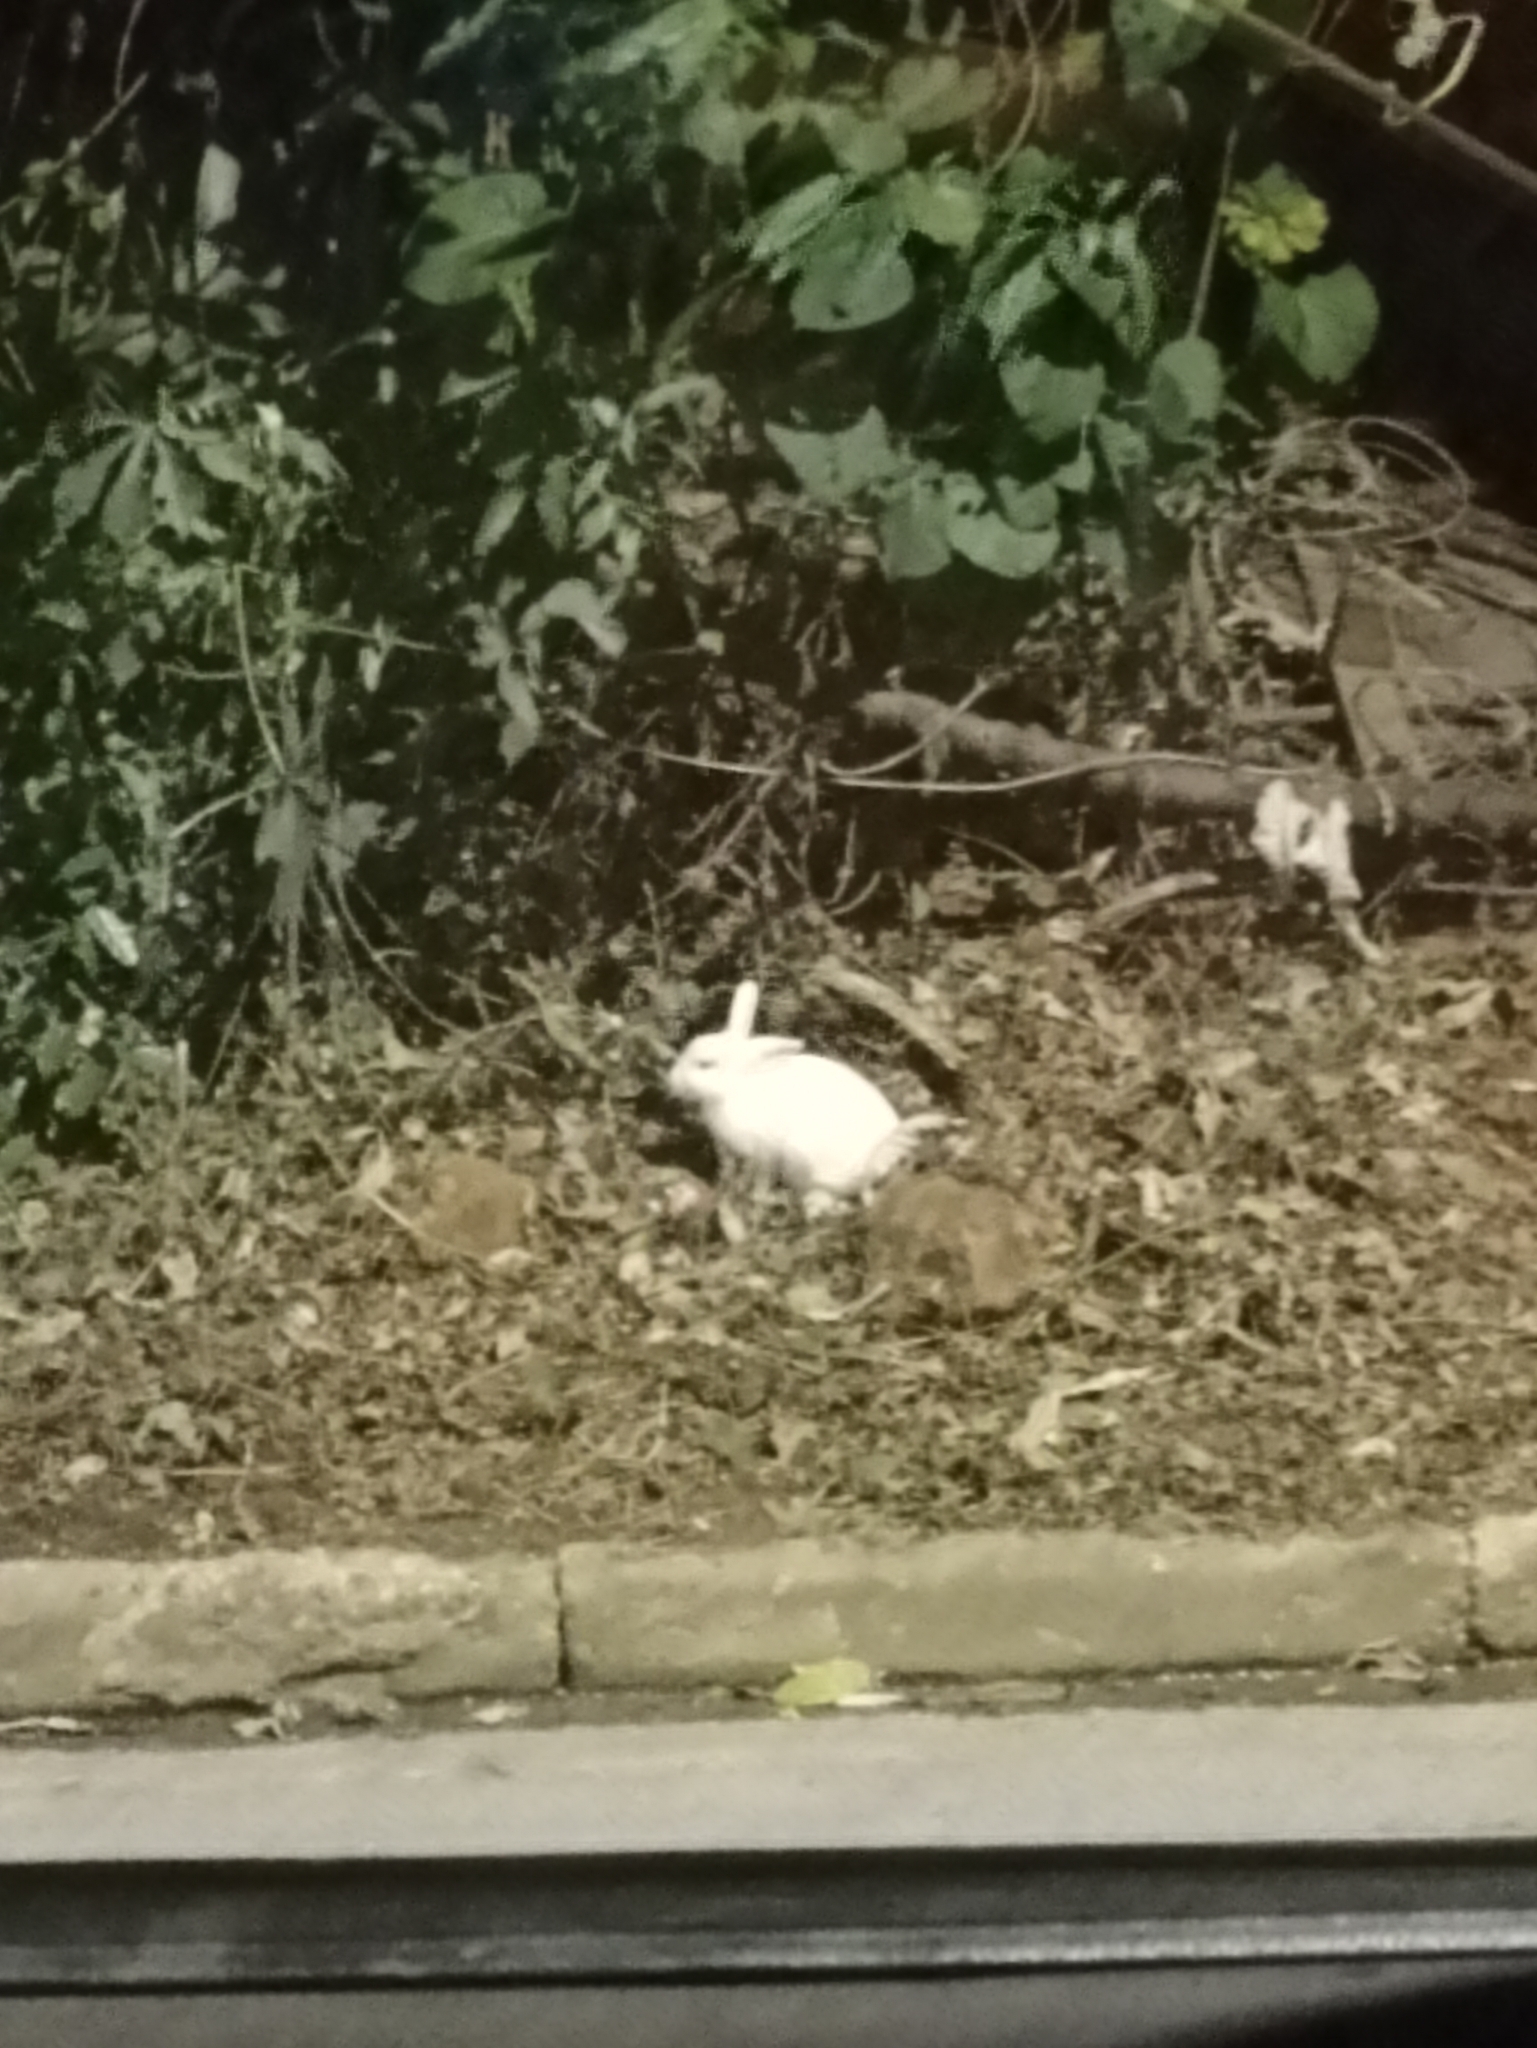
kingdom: Animalia
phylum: Chordata
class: Mammalia
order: Lagomorpha
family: Leporidae
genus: Oryctolagus
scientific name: Oryctolagus cuniculus
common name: European rabbit
